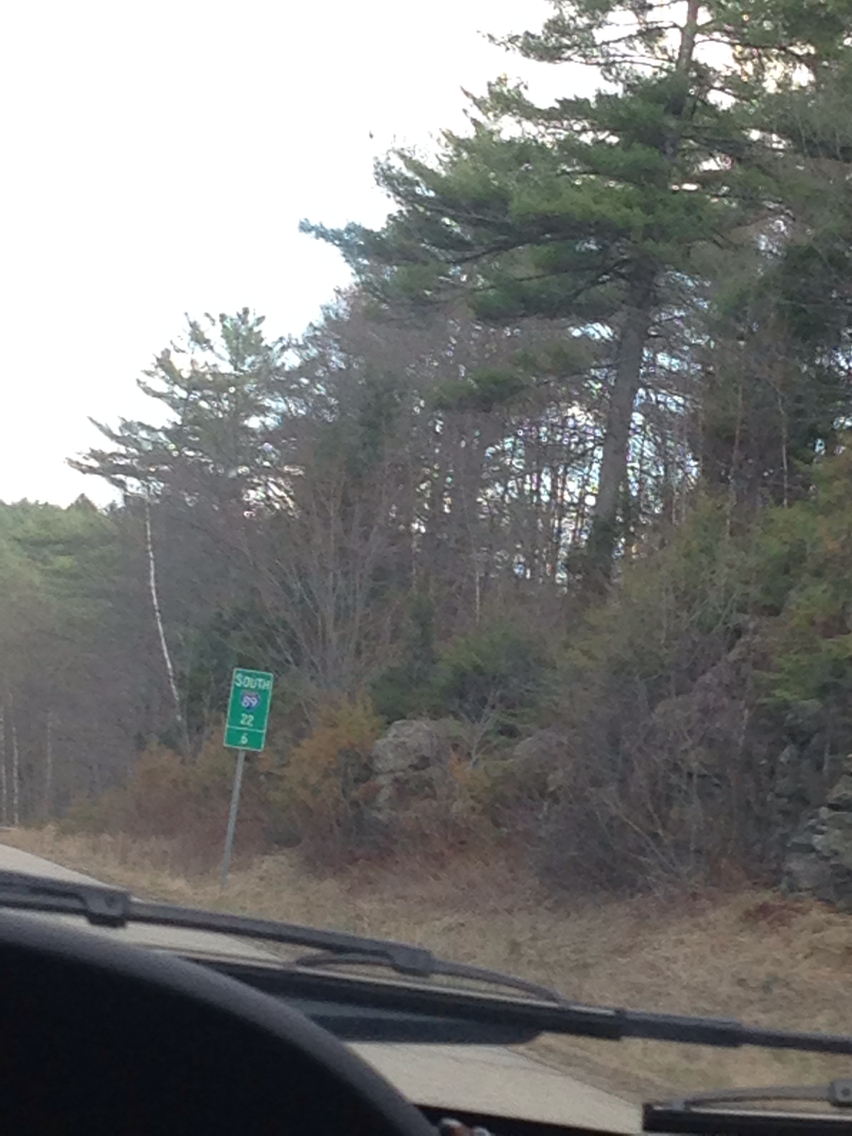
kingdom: Plantae
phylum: Tracheophyta
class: Pinopsida
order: Pinales
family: Pinaceae
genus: Pinus
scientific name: Pinus strobus
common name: Weymouth pine
